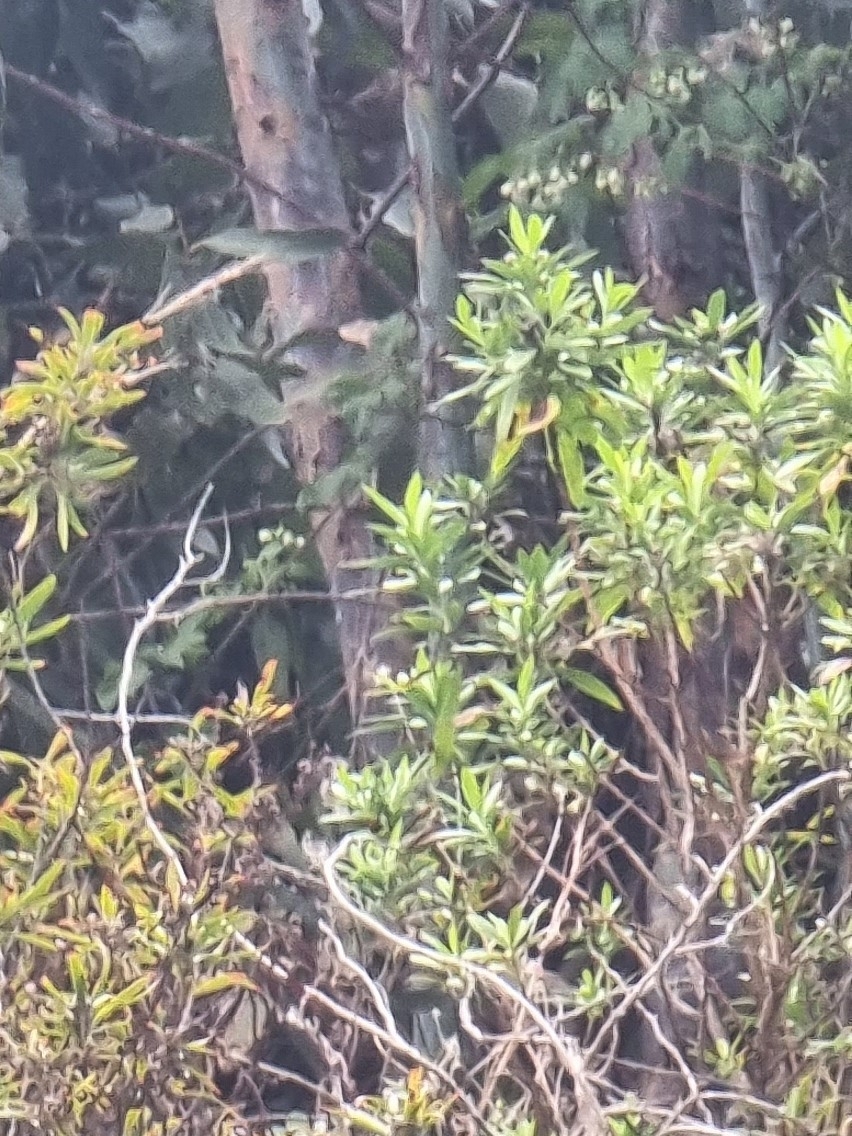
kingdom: Plantae
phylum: Tracheophyta
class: Magnoliopsida
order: Lamiales
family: Plantaginaceae
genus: Globularia
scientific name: Globularia salicina
